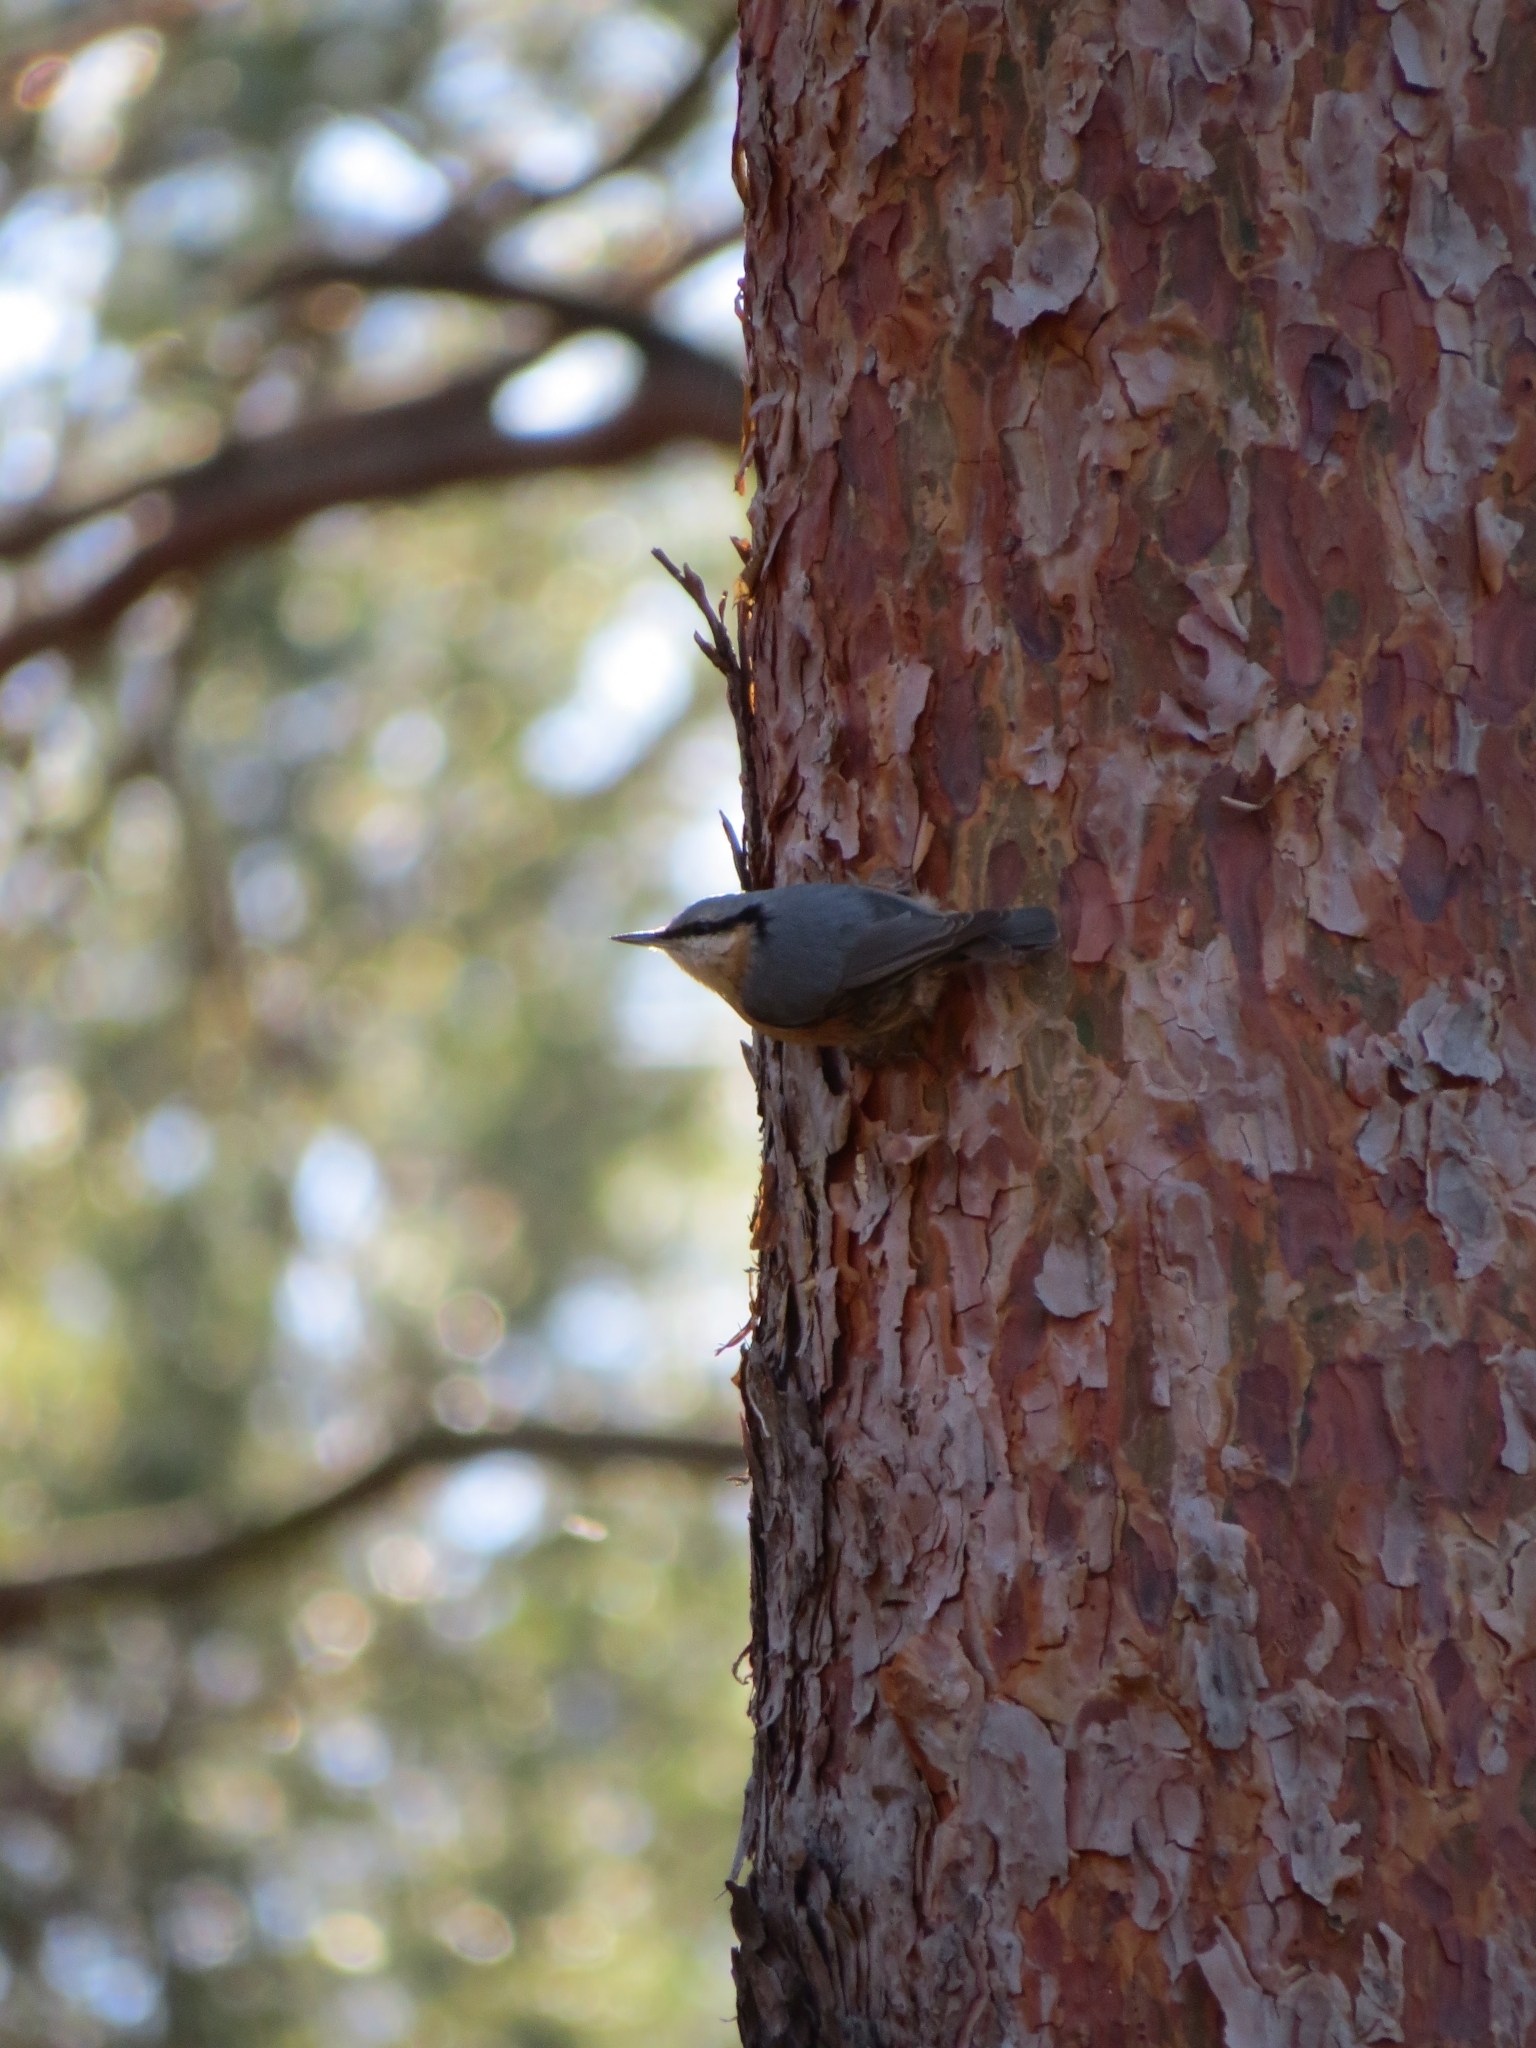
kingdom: Animalia
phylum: Chordata
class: Aves
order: Passeriformes
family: Sittidae
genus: Sitta
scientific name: Sitta europaea
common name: Eurasian nuthatch
